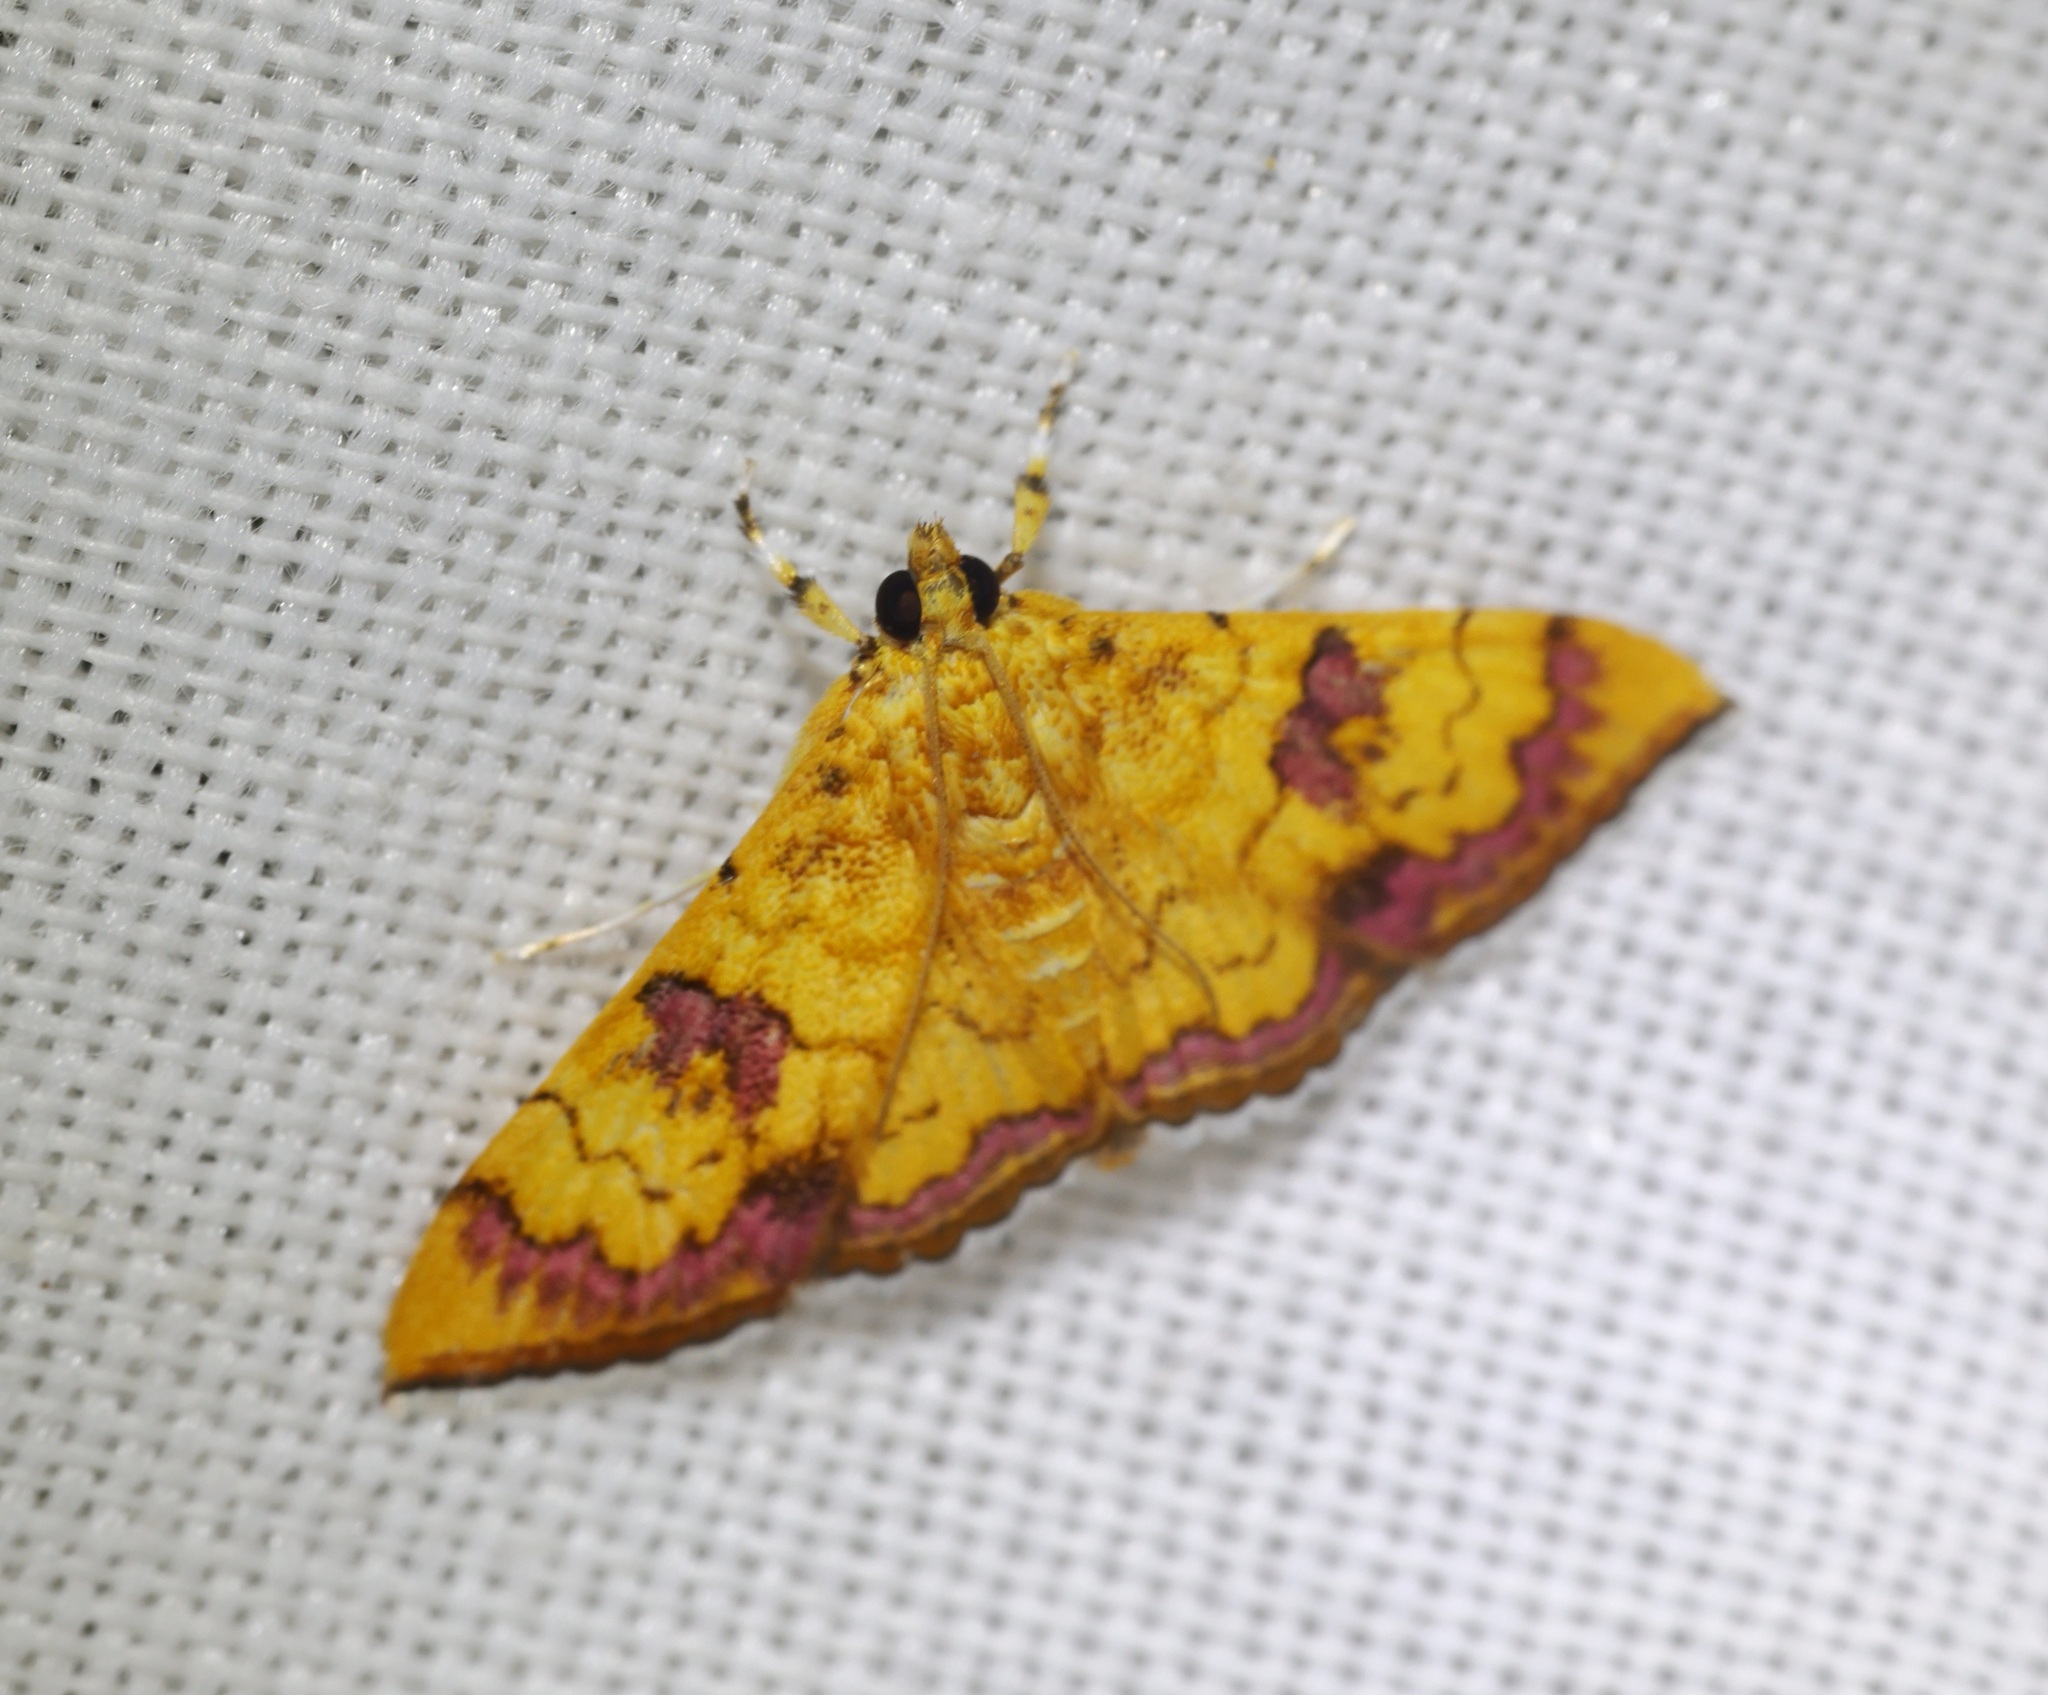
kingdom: Animalia
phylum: Arthropoda
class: Insecta
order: Lepidoptera
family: Crambidae
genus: Isocentris
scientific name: Isocentris filalis
